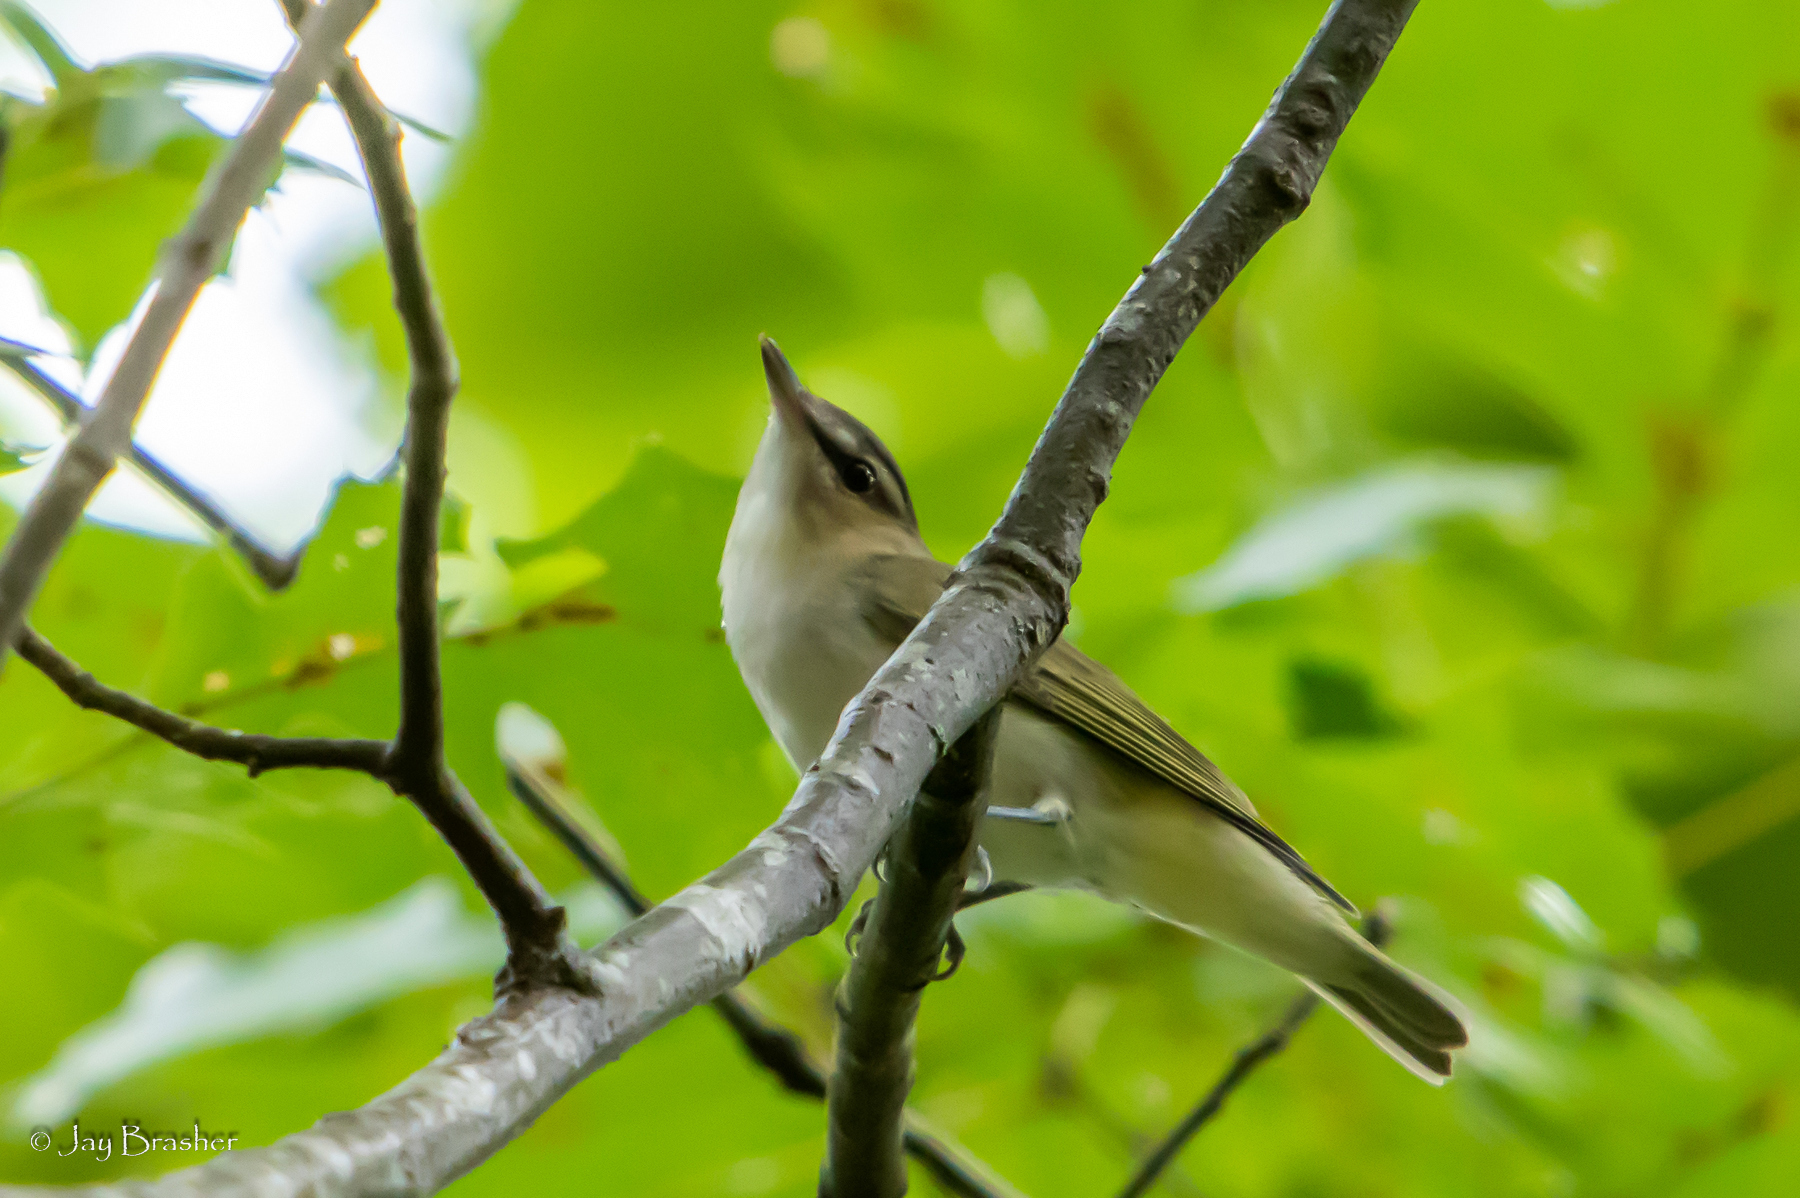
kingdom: Animalia
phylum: Chordata
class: Aves
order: Passeriformes
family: Vireonidae
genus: Vireo
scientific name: Vireo olivaceus
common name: Red-eyed vireo
